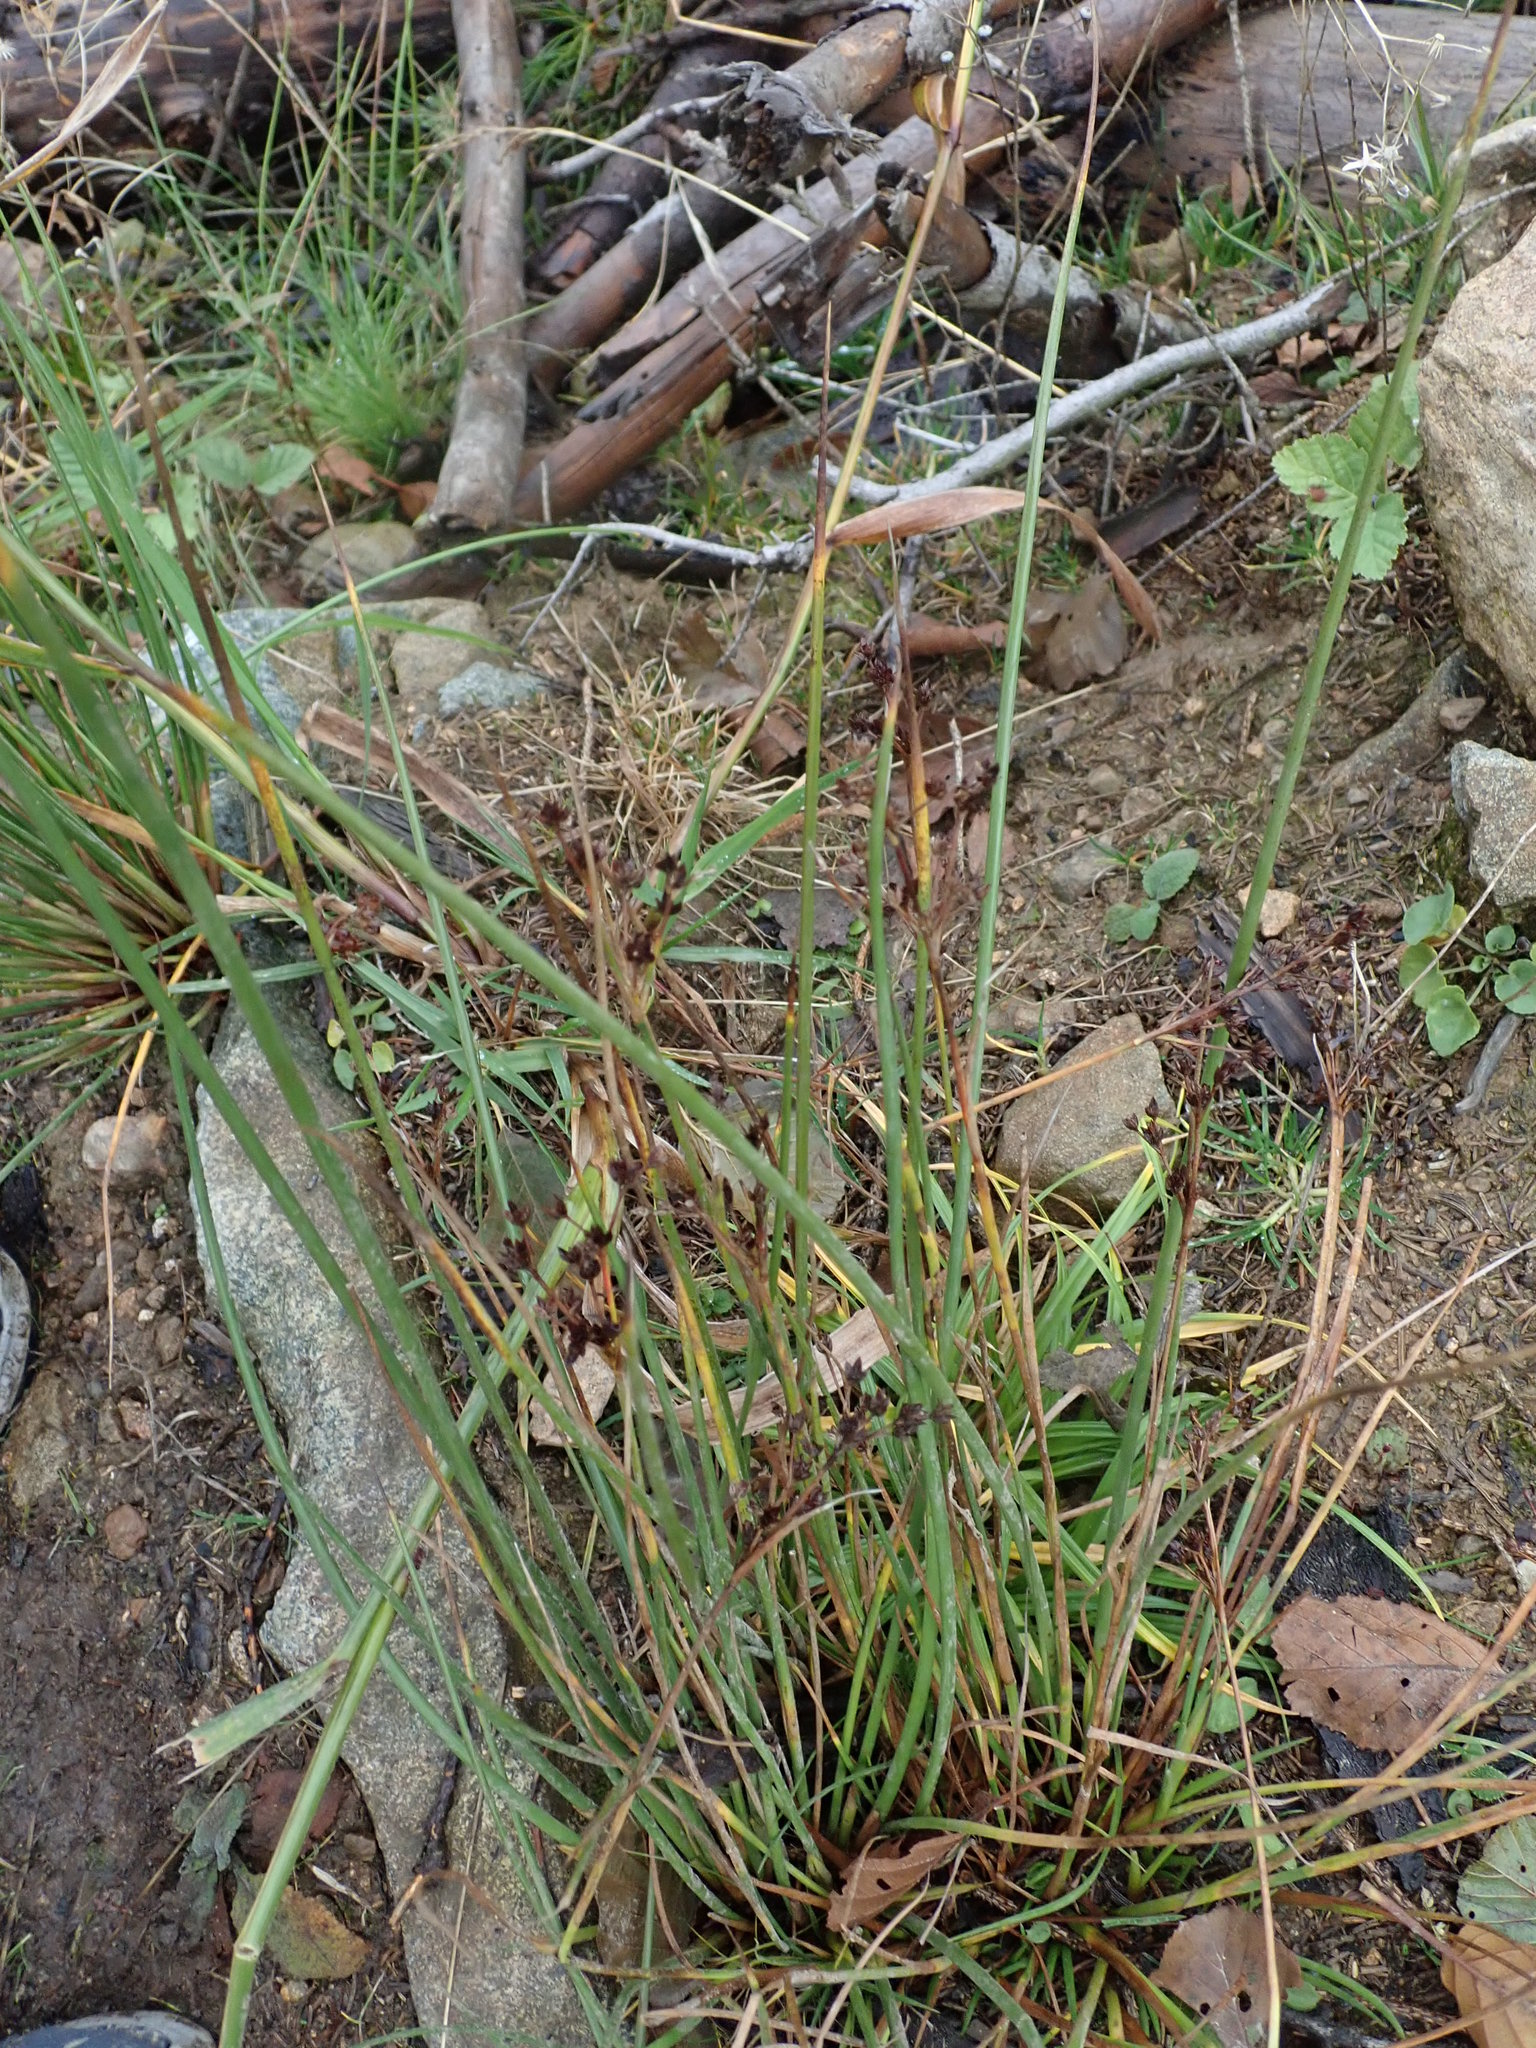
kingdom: Plantae
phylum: Tracheophyta
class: Liliopsida
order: Poales
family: Juncaceae
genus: Juncus
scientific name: Juncus articulatus
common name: Jointed rush
